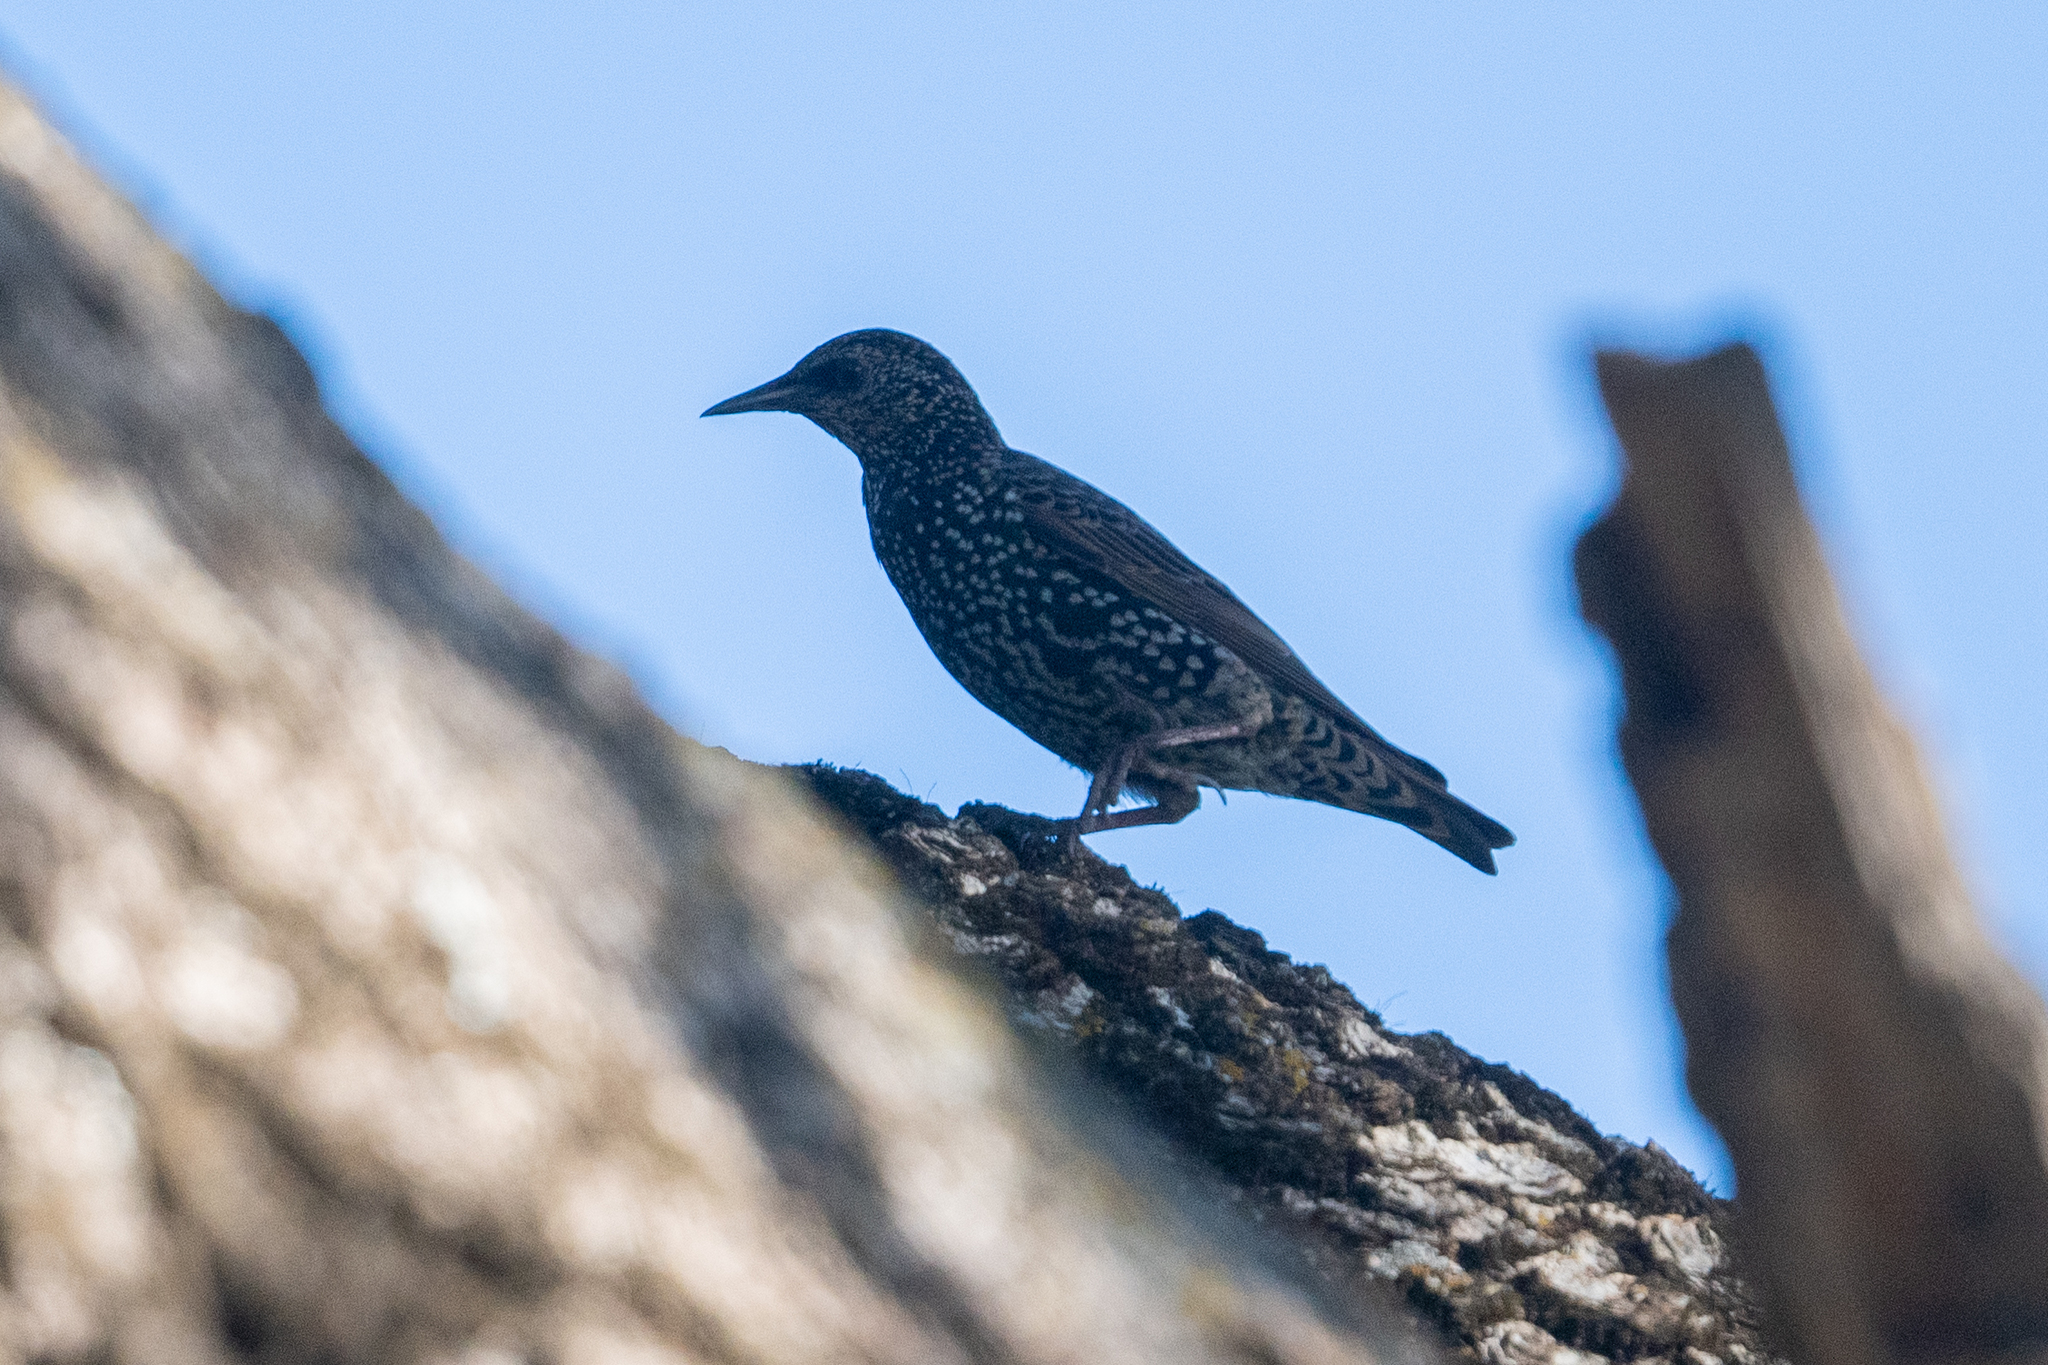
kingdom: Animalia
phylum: Chordata
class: Aves
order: Passeriformes
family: Sturnidae
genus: Sturnus
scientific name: Sturnus vulgaris
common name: Common starling
